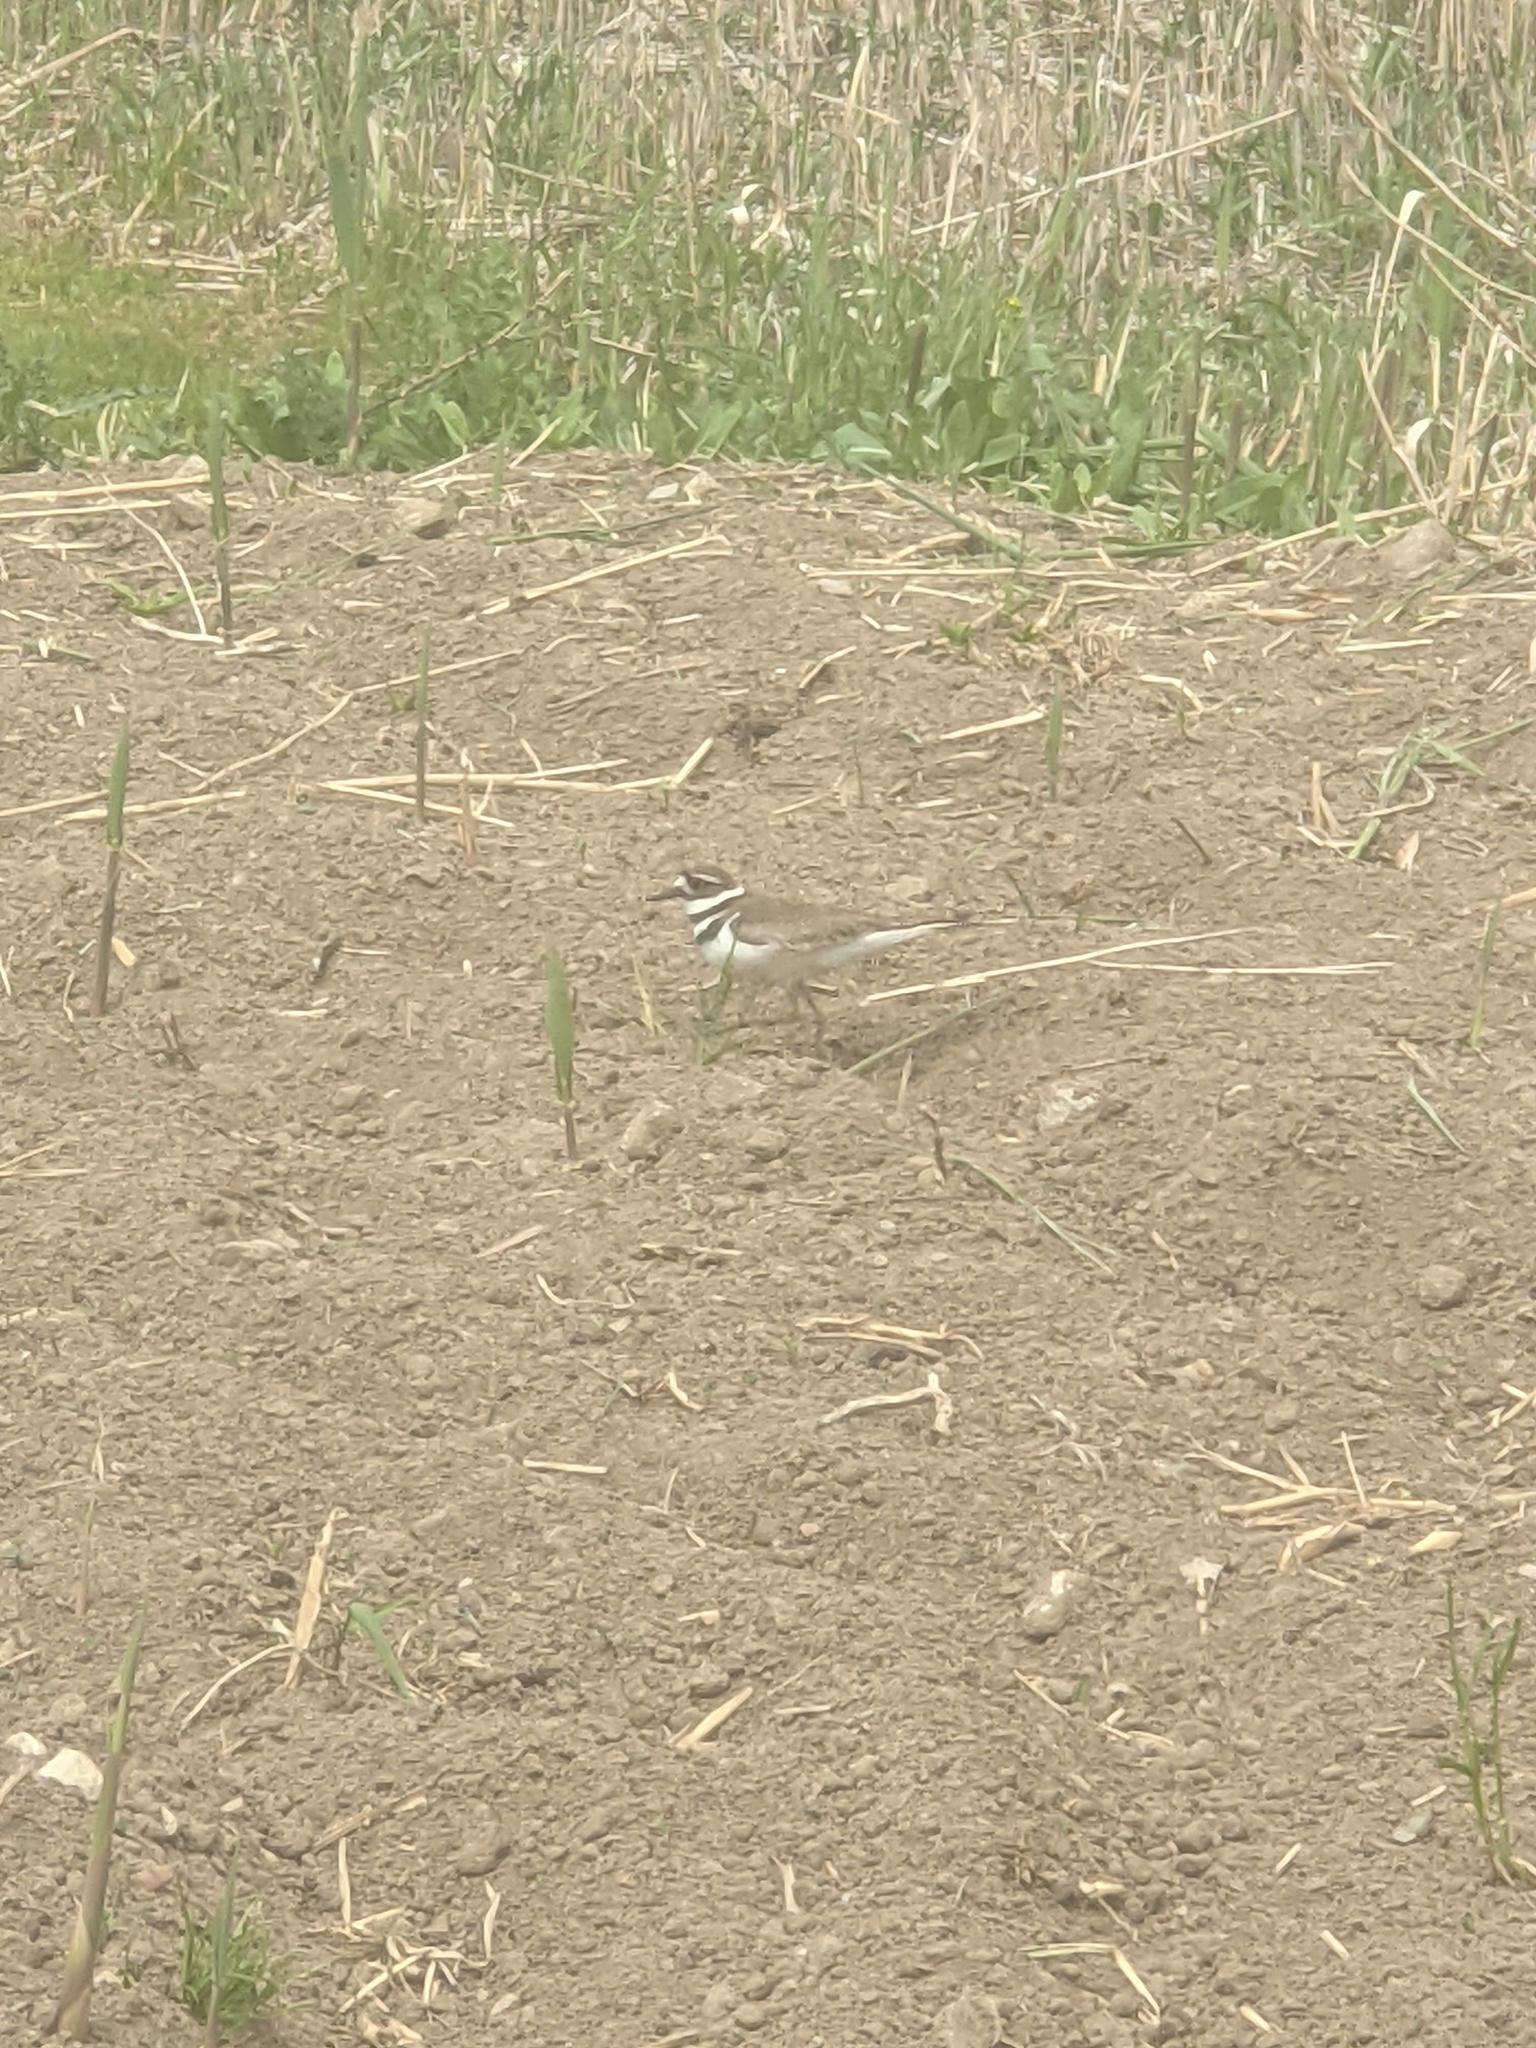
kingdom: Animalia
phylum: Chordata
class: Aves
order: Charadriiformes
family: Charadriidae
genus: Charadrius
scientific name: Charadrius vociferus
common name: Killdeer
